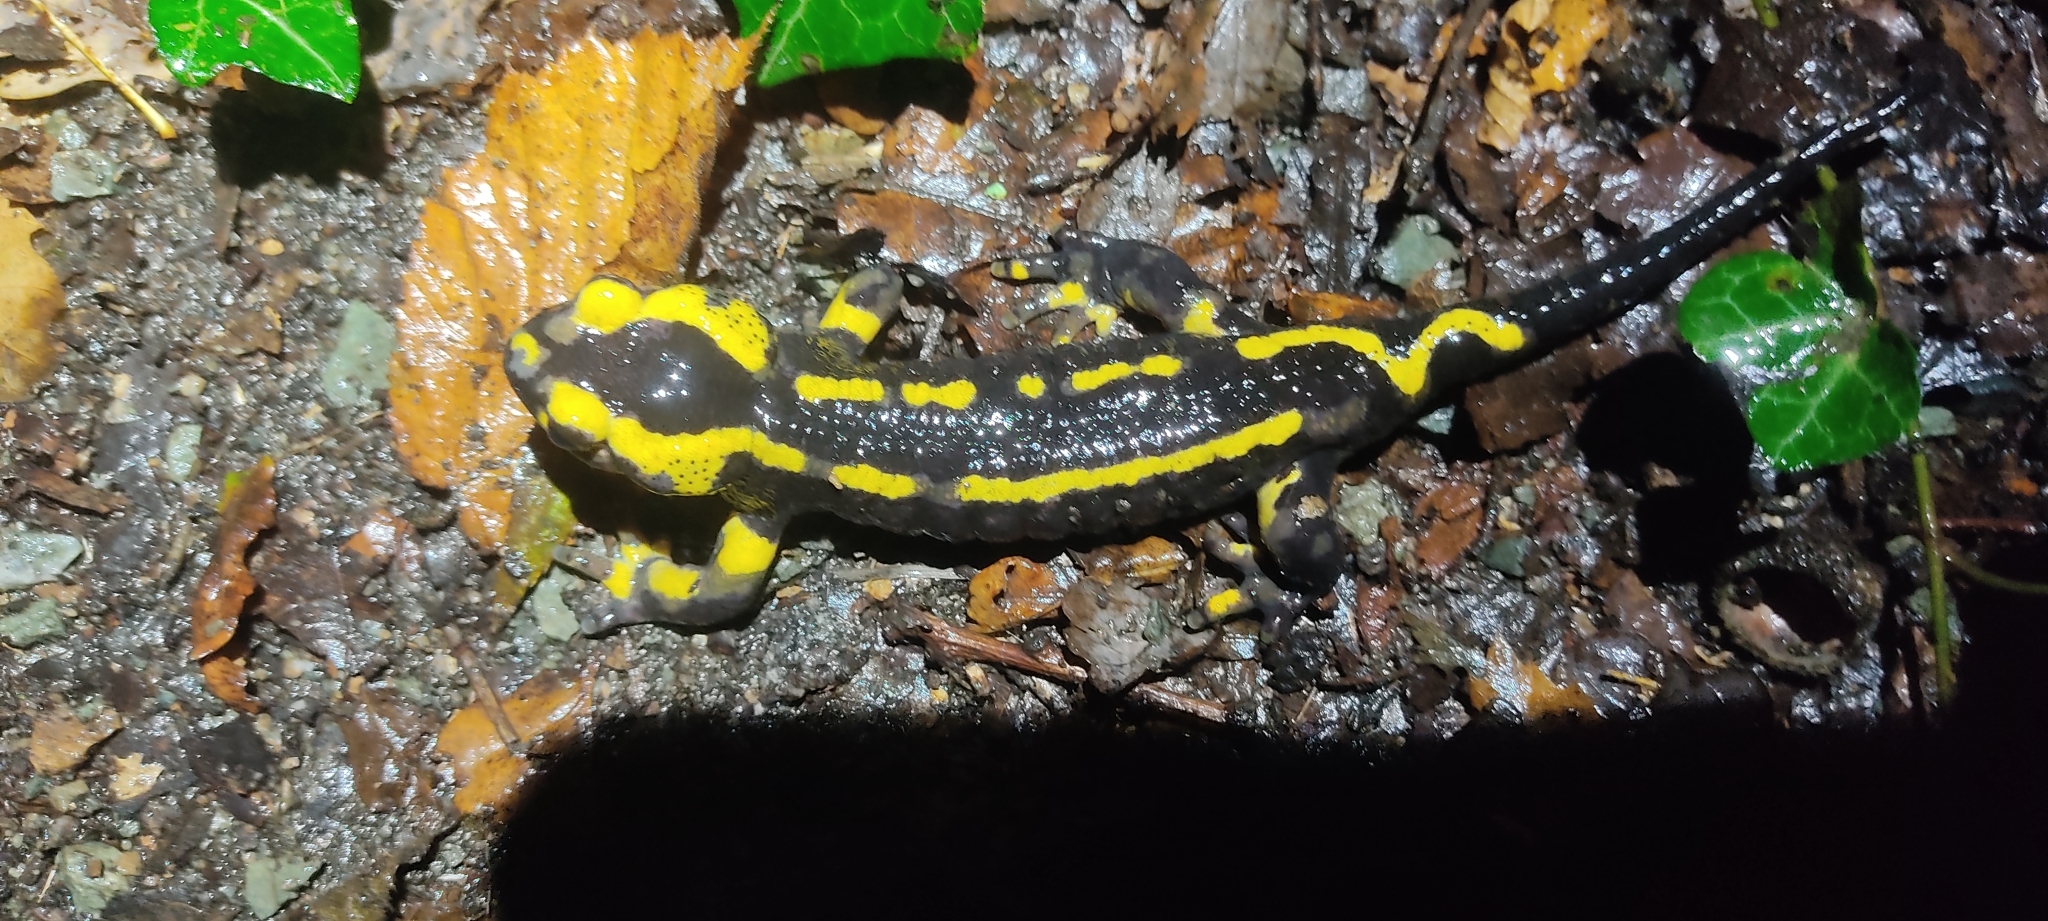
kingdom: Animalia
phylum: Chordata
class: Amphibia
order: Caudata
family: Salamandridae
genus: Salamandra
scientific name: Salamandra salamandra
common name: Fire salamander
